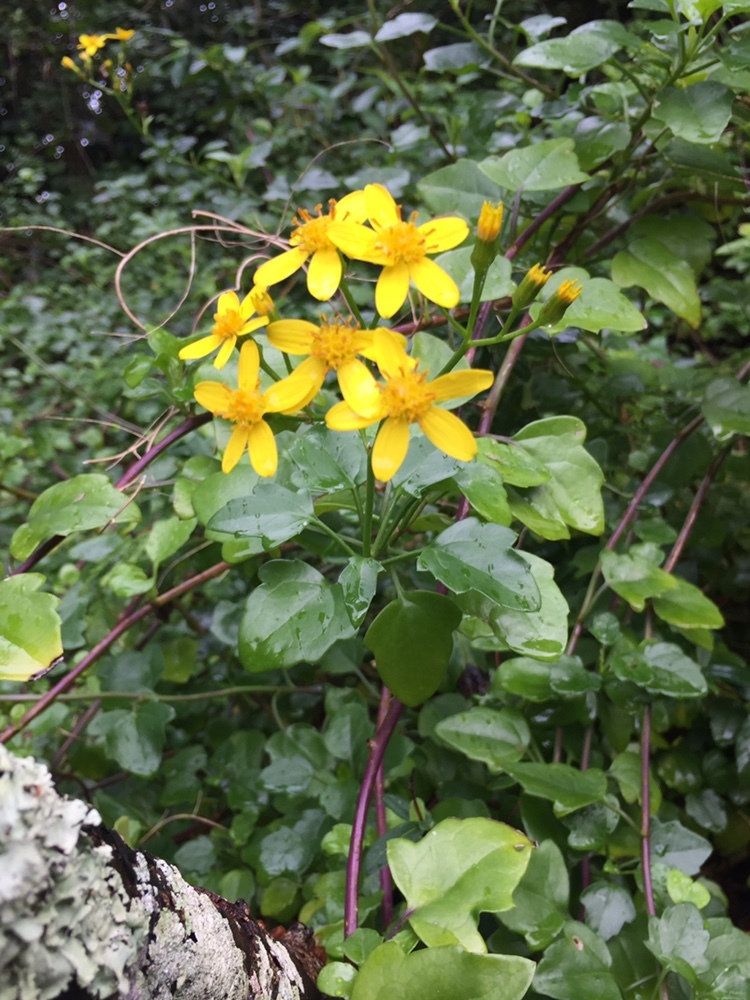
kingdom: Plantae
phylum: Tracheophyta
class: Magnoliopsida
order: Asterales
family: Asteraceae
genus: Senecio
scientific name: Senecio angulatus
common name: Climbing groundsel
